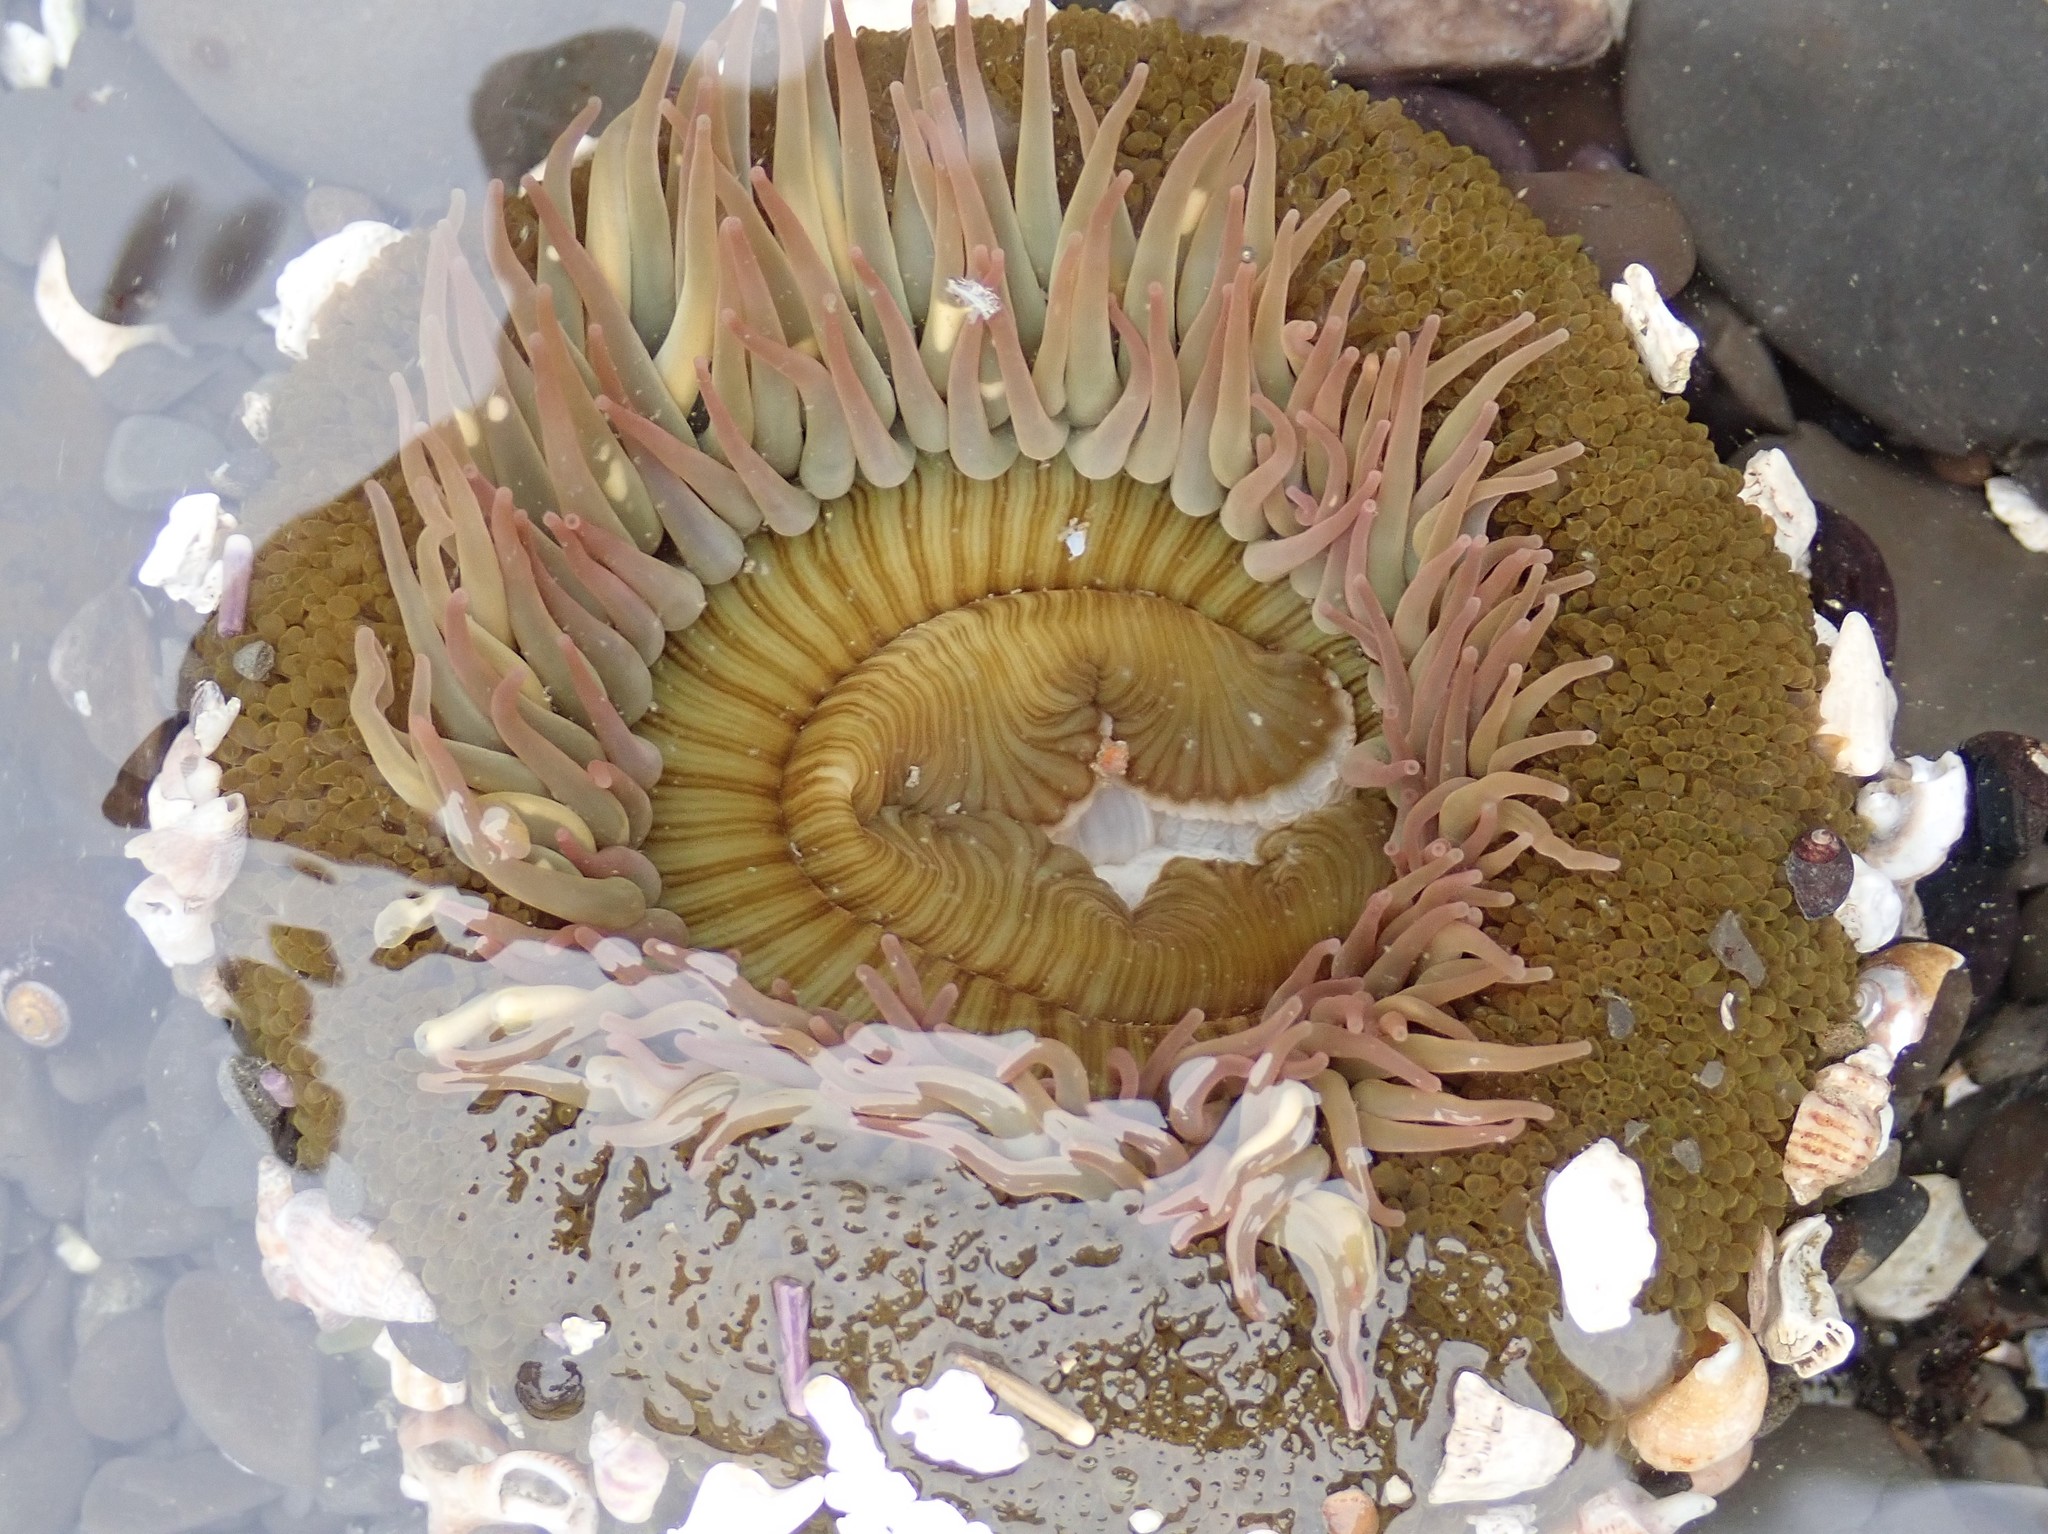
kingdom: Animalia
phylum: Cnidaria
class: Anthozoa
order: Actiniaria
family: Actiniidae
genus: Anthopleura
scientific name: Anthopleura sola
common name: Sun anemone
